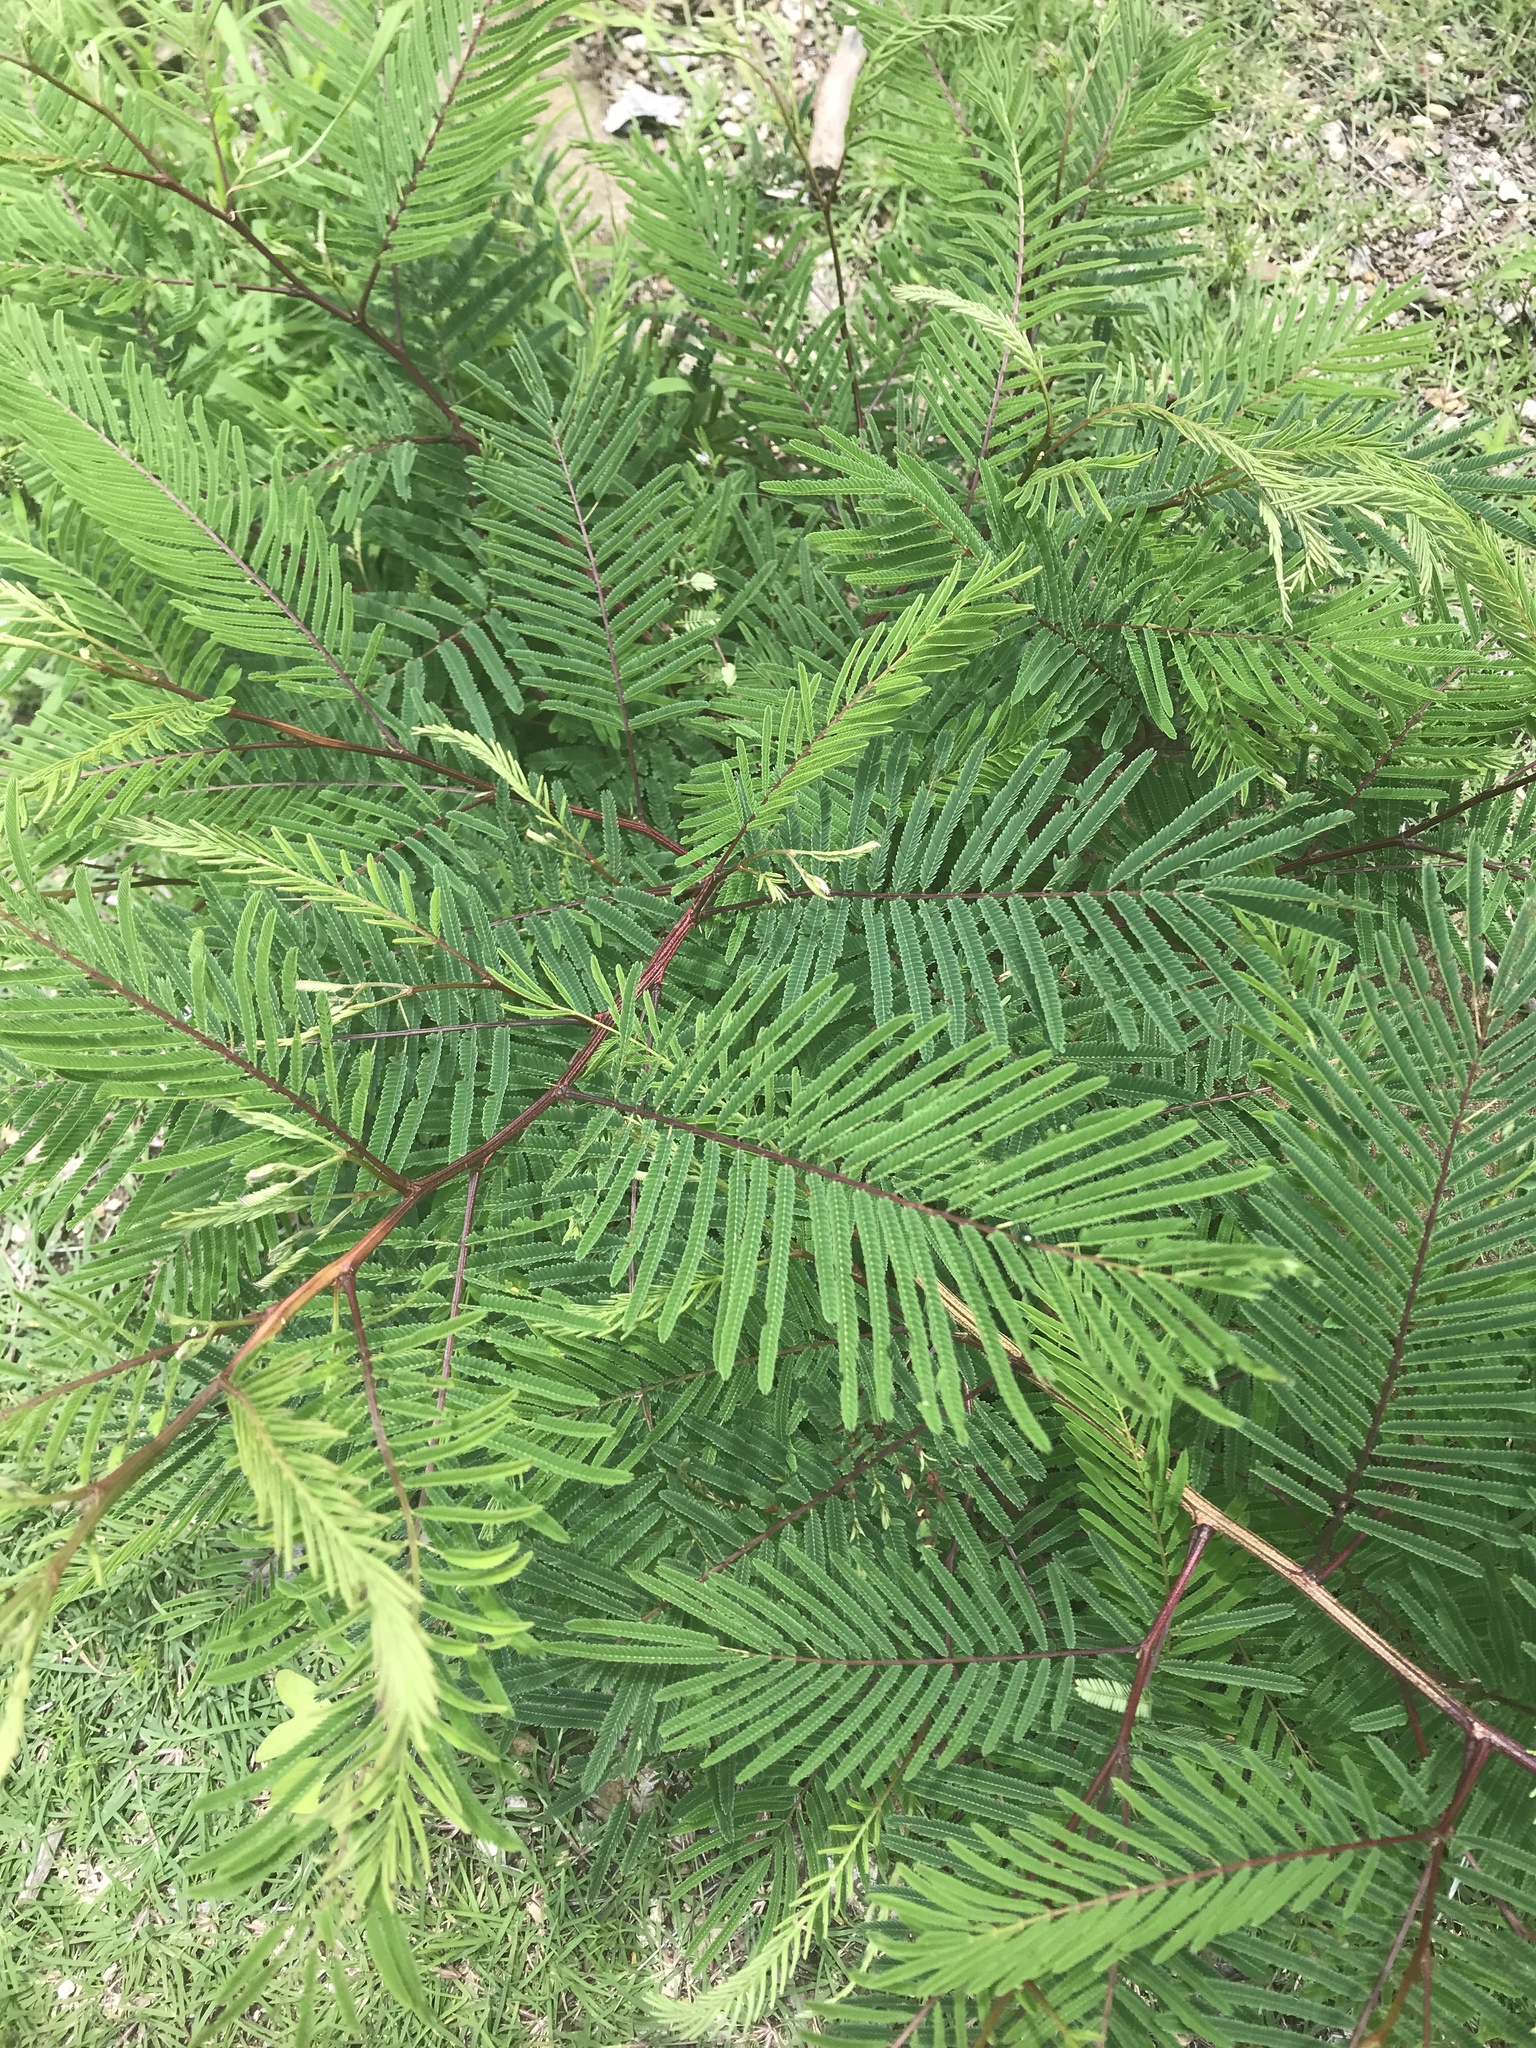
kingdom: Plantae
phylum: Tracheophyta
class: Magnoliopsida
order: Fabales
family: Fabaceae
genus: Vachellia
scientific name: Vachellia pennatula
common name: Fern-leaf acacia
